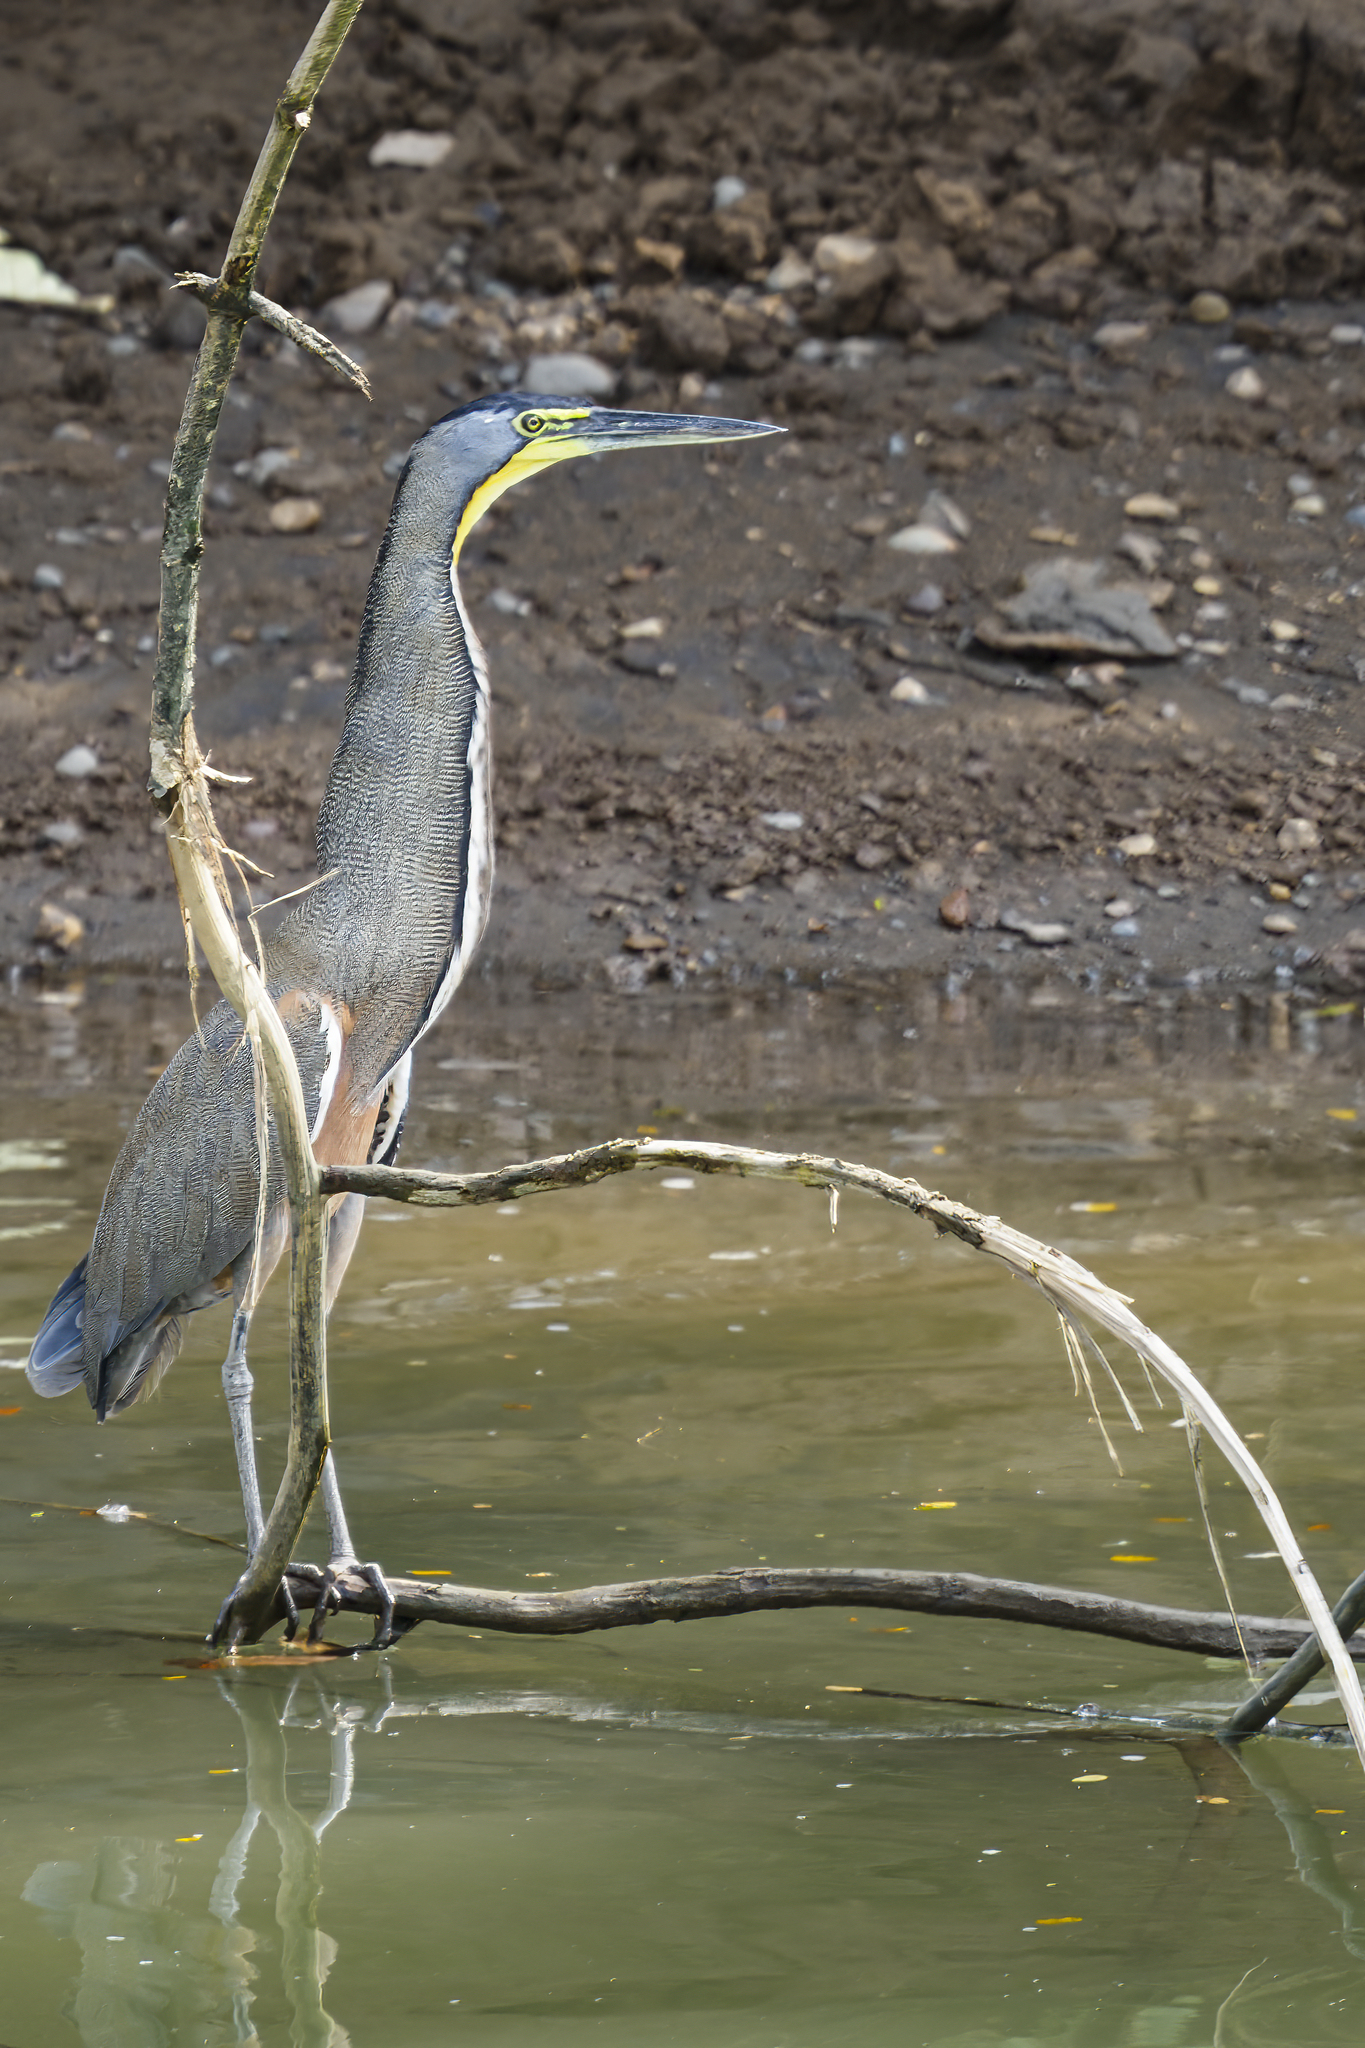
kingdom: Animalia
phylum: Chordata
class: Aves
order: Pelecaniformes
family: Ardeidae
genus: Tigrisoma
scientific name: Tigrisoma mexicanum
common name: Bare-throated tiger-heron
